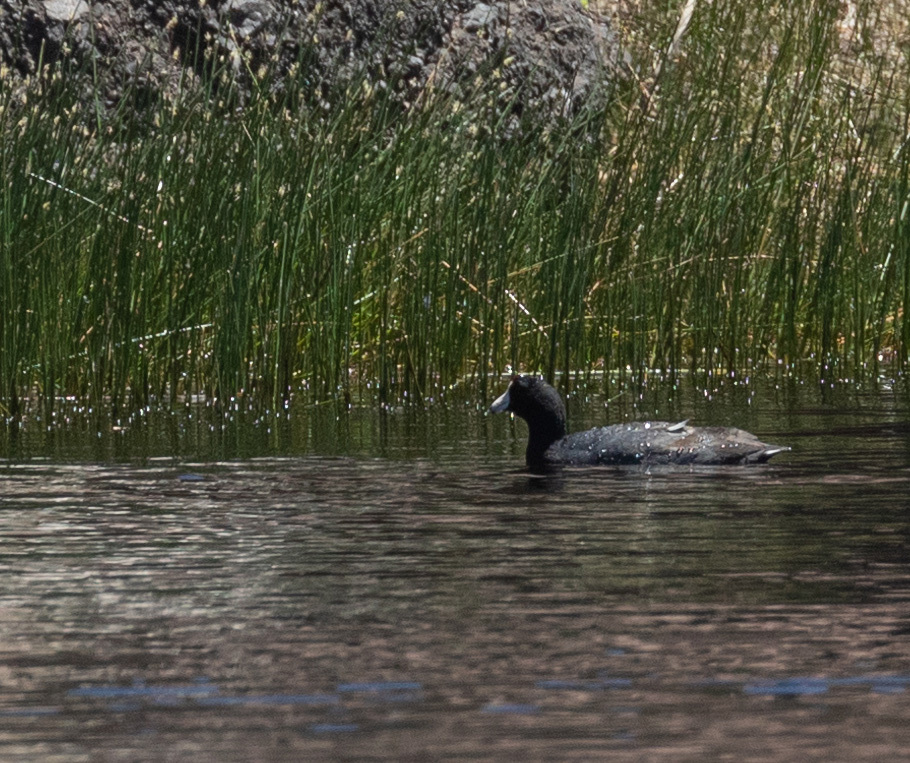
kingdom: Animalia
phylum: Chordata
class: Aves
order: Gruiformes
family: Rallidae
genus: Fulica
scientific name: Fulica americana
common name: American coot
